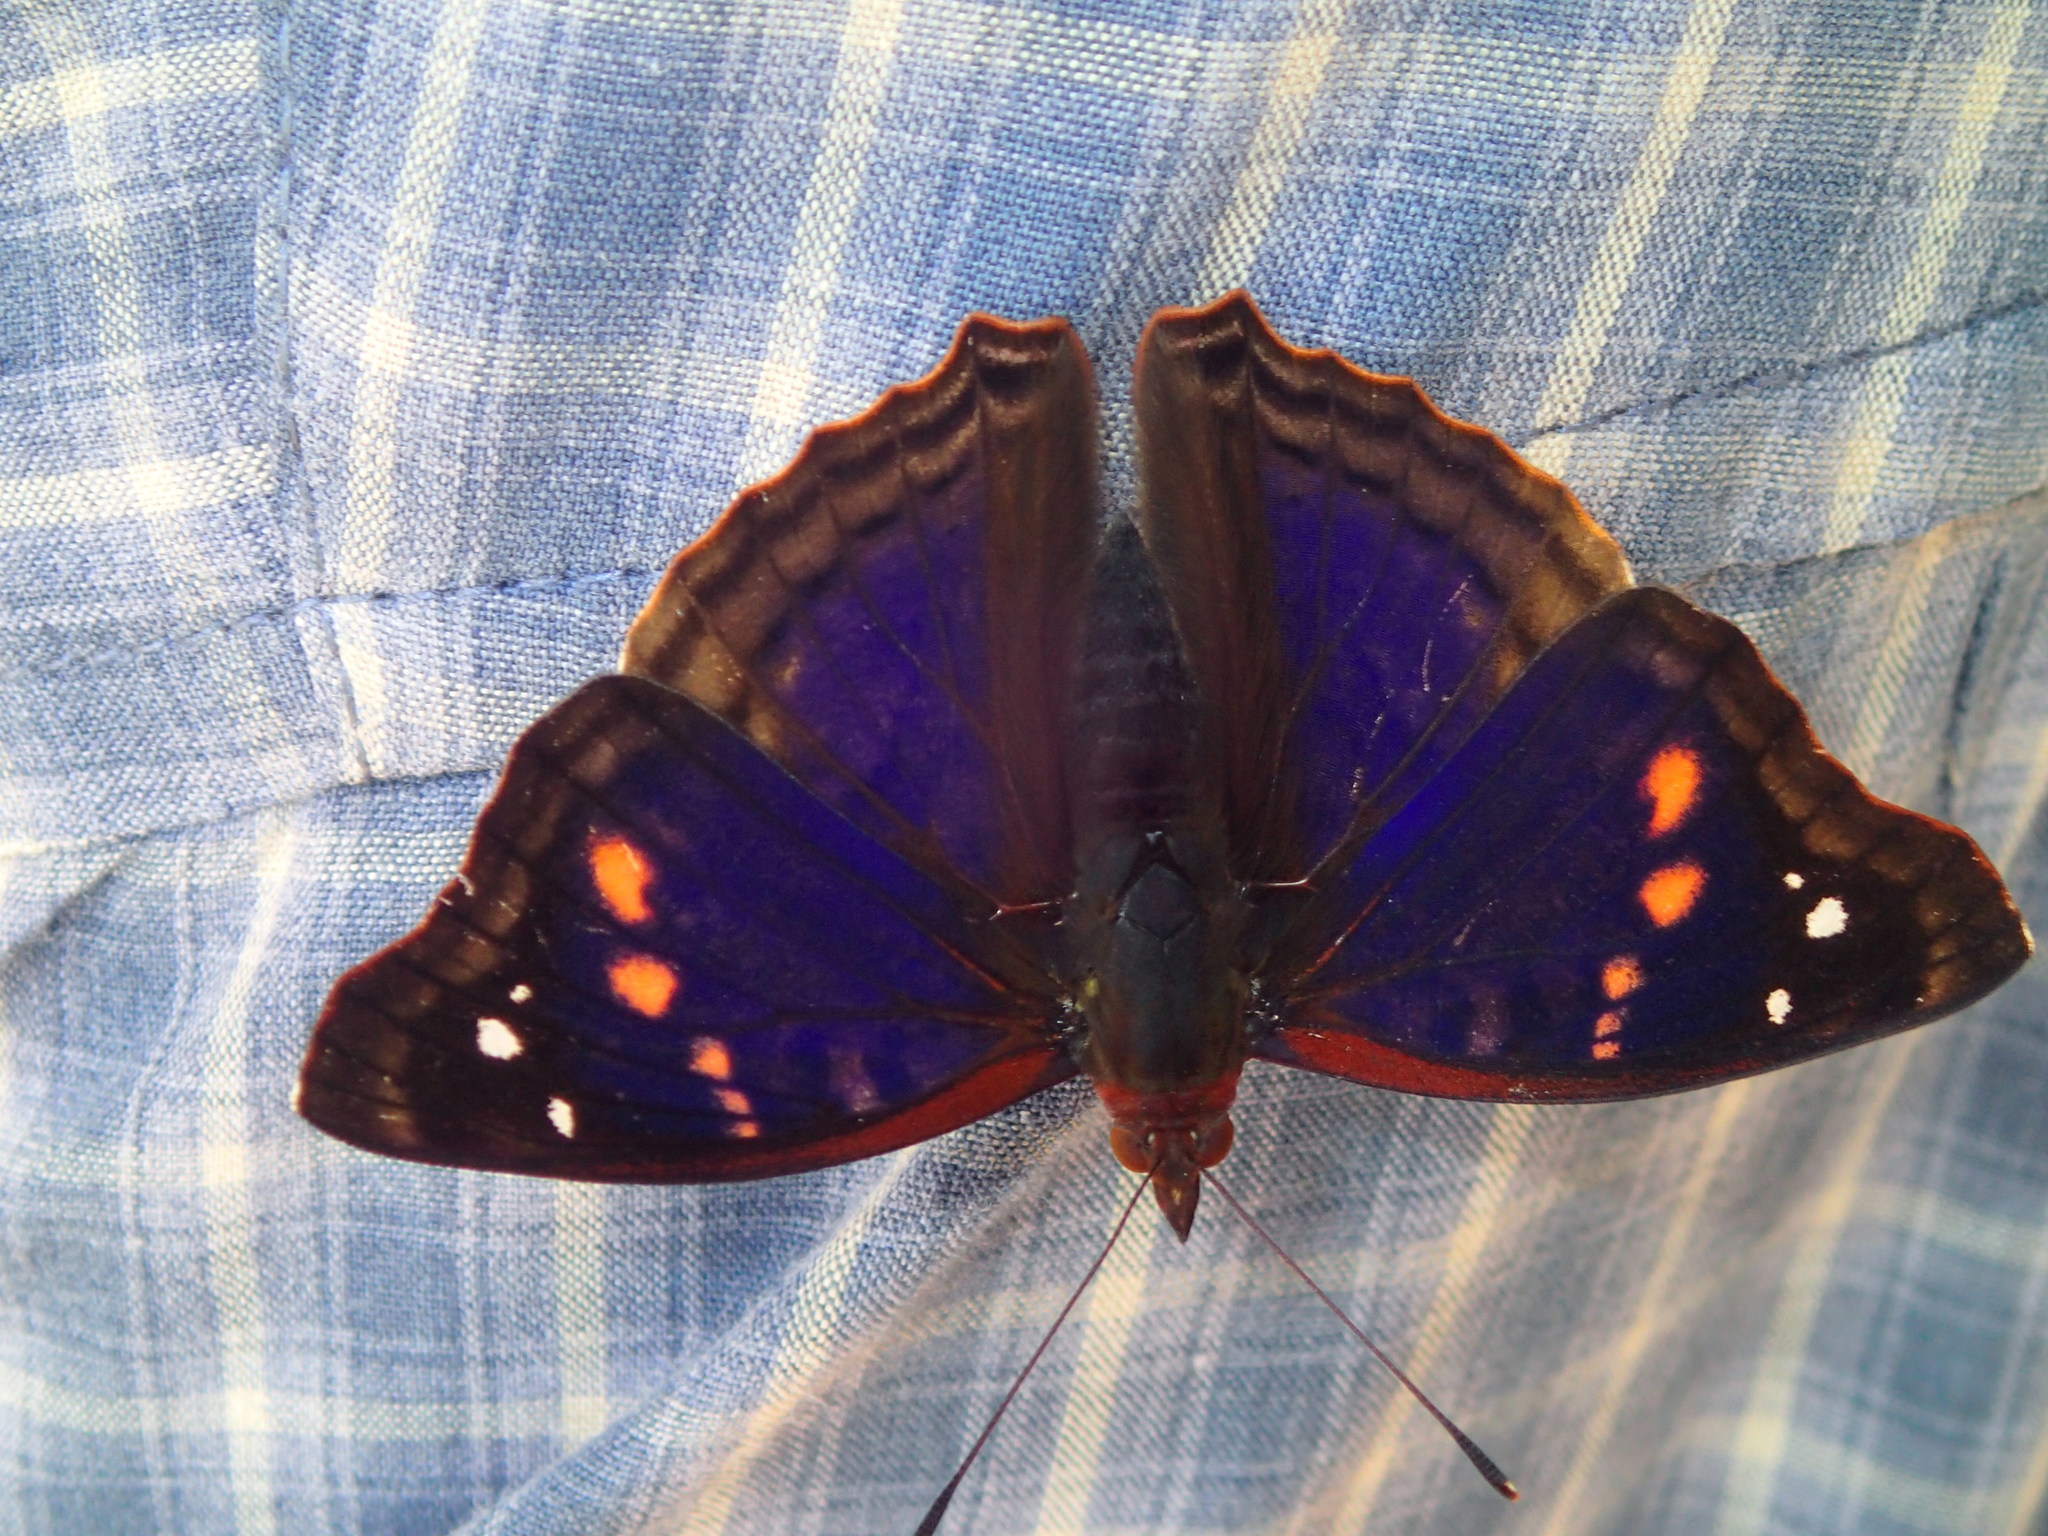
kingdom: Animalia
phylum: Arthropoda
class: Insecta
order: Lepidoptera
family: Nymphalidae
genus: Doxocopa
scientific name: Doxocopa agathina
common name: Agathina emperor
